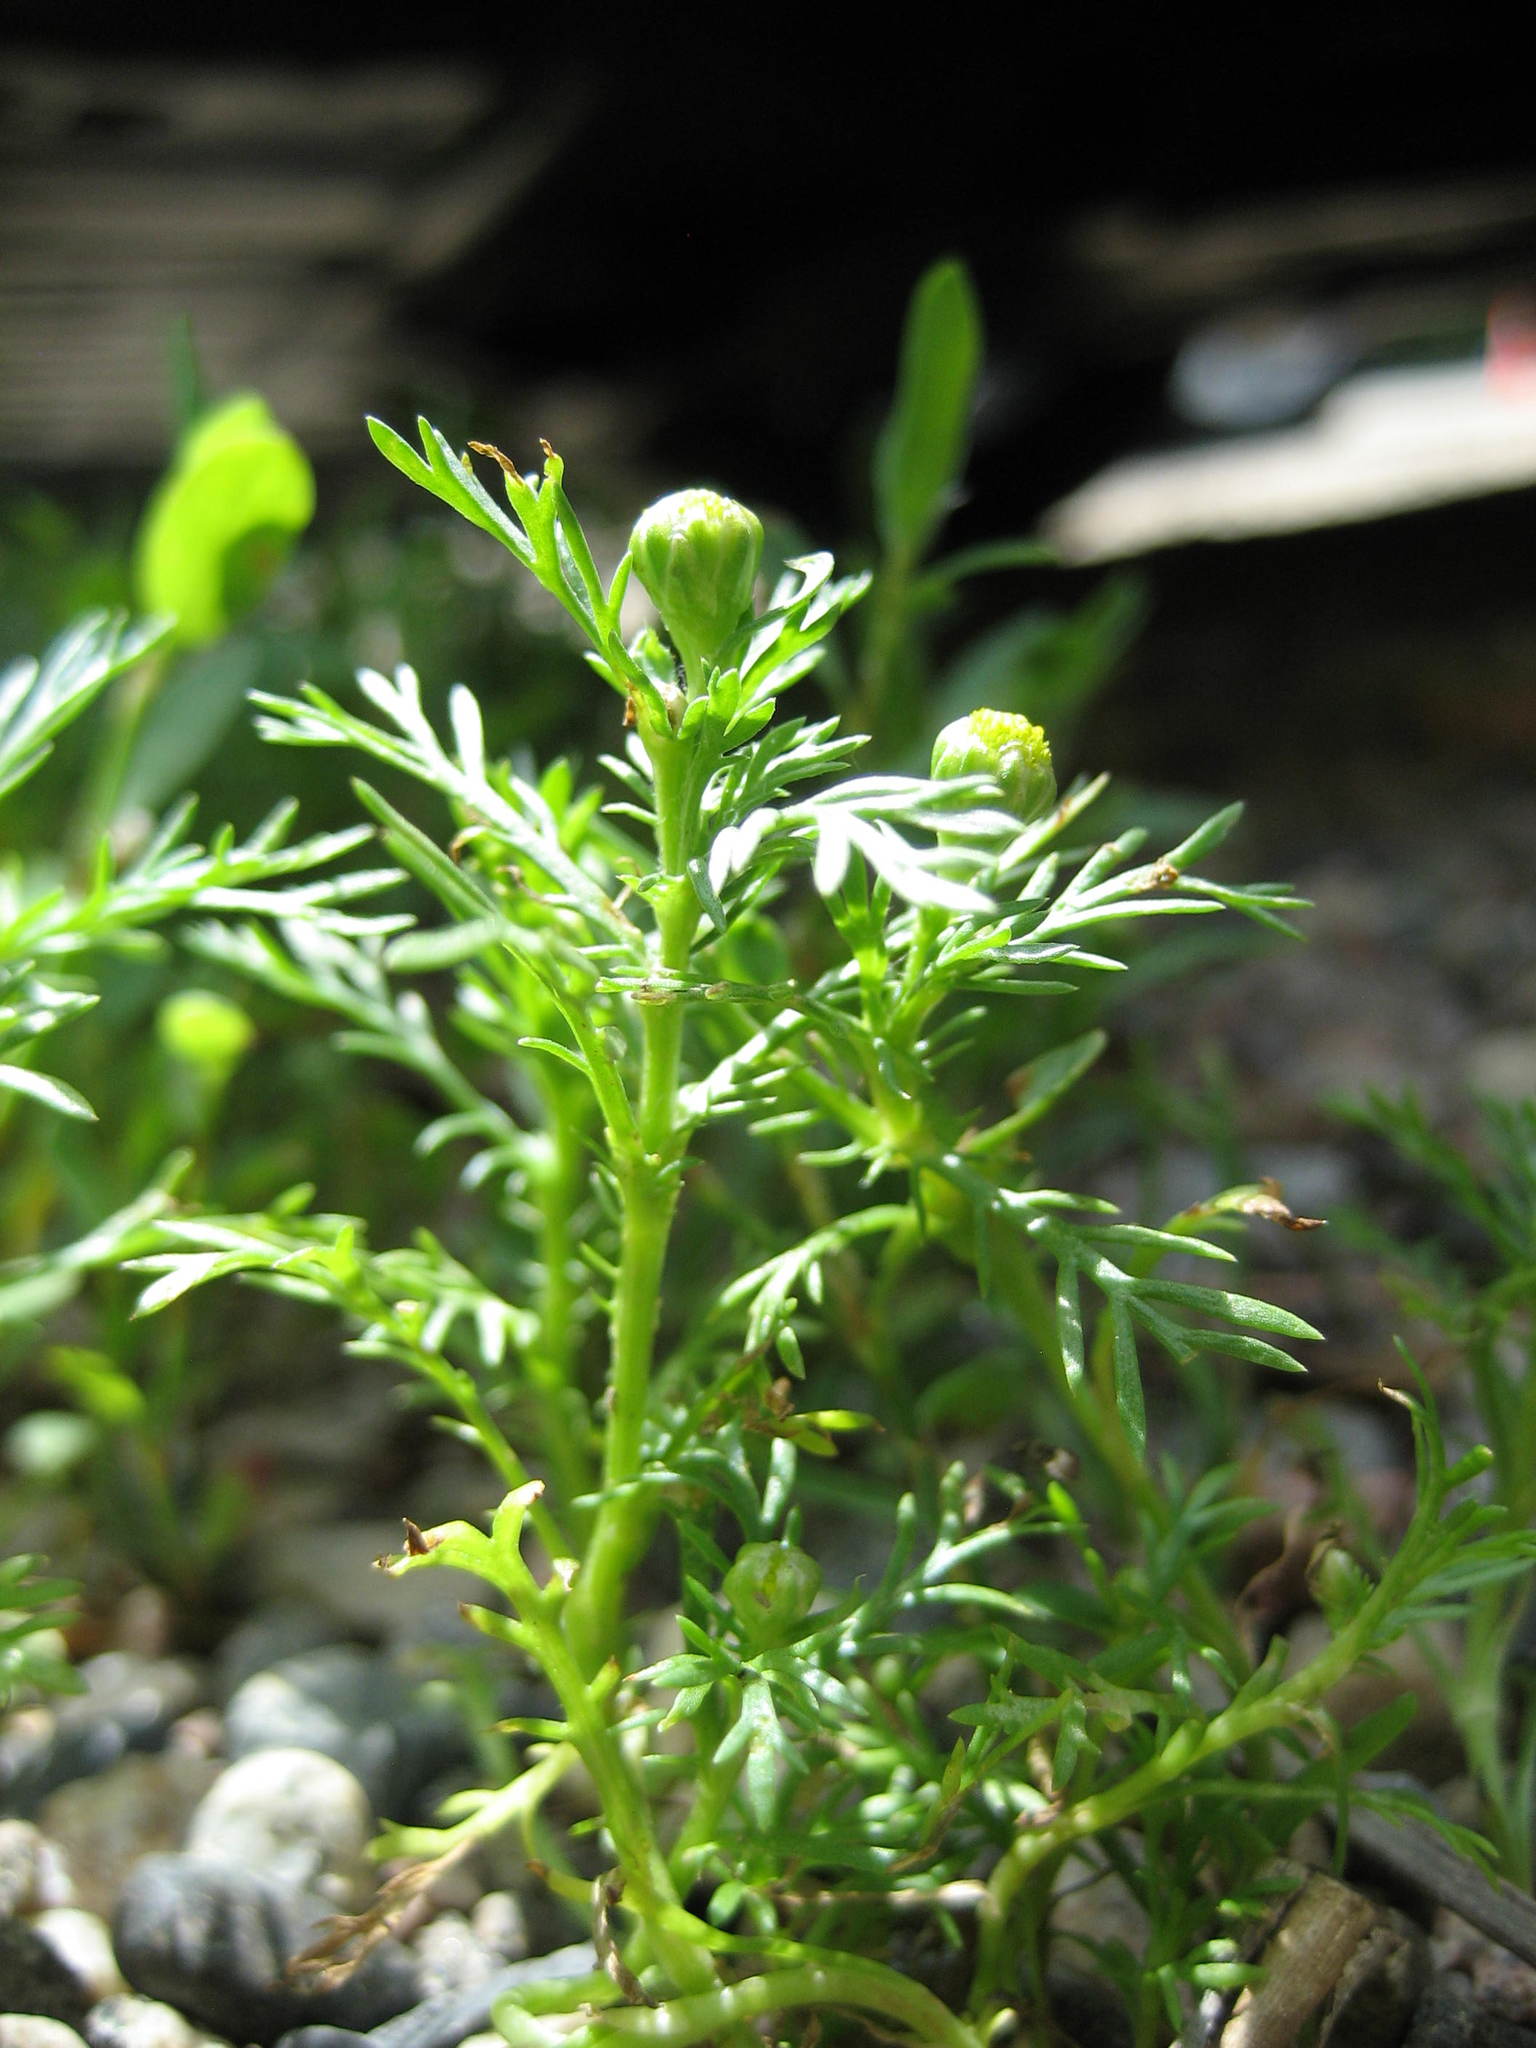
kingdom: Plantae
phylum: Tracheophyta
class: Magnoliopsida
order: Asterales
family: Asteraceae
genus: Matricaria
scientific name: Matricaria discoidea
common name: Disc mayweed
